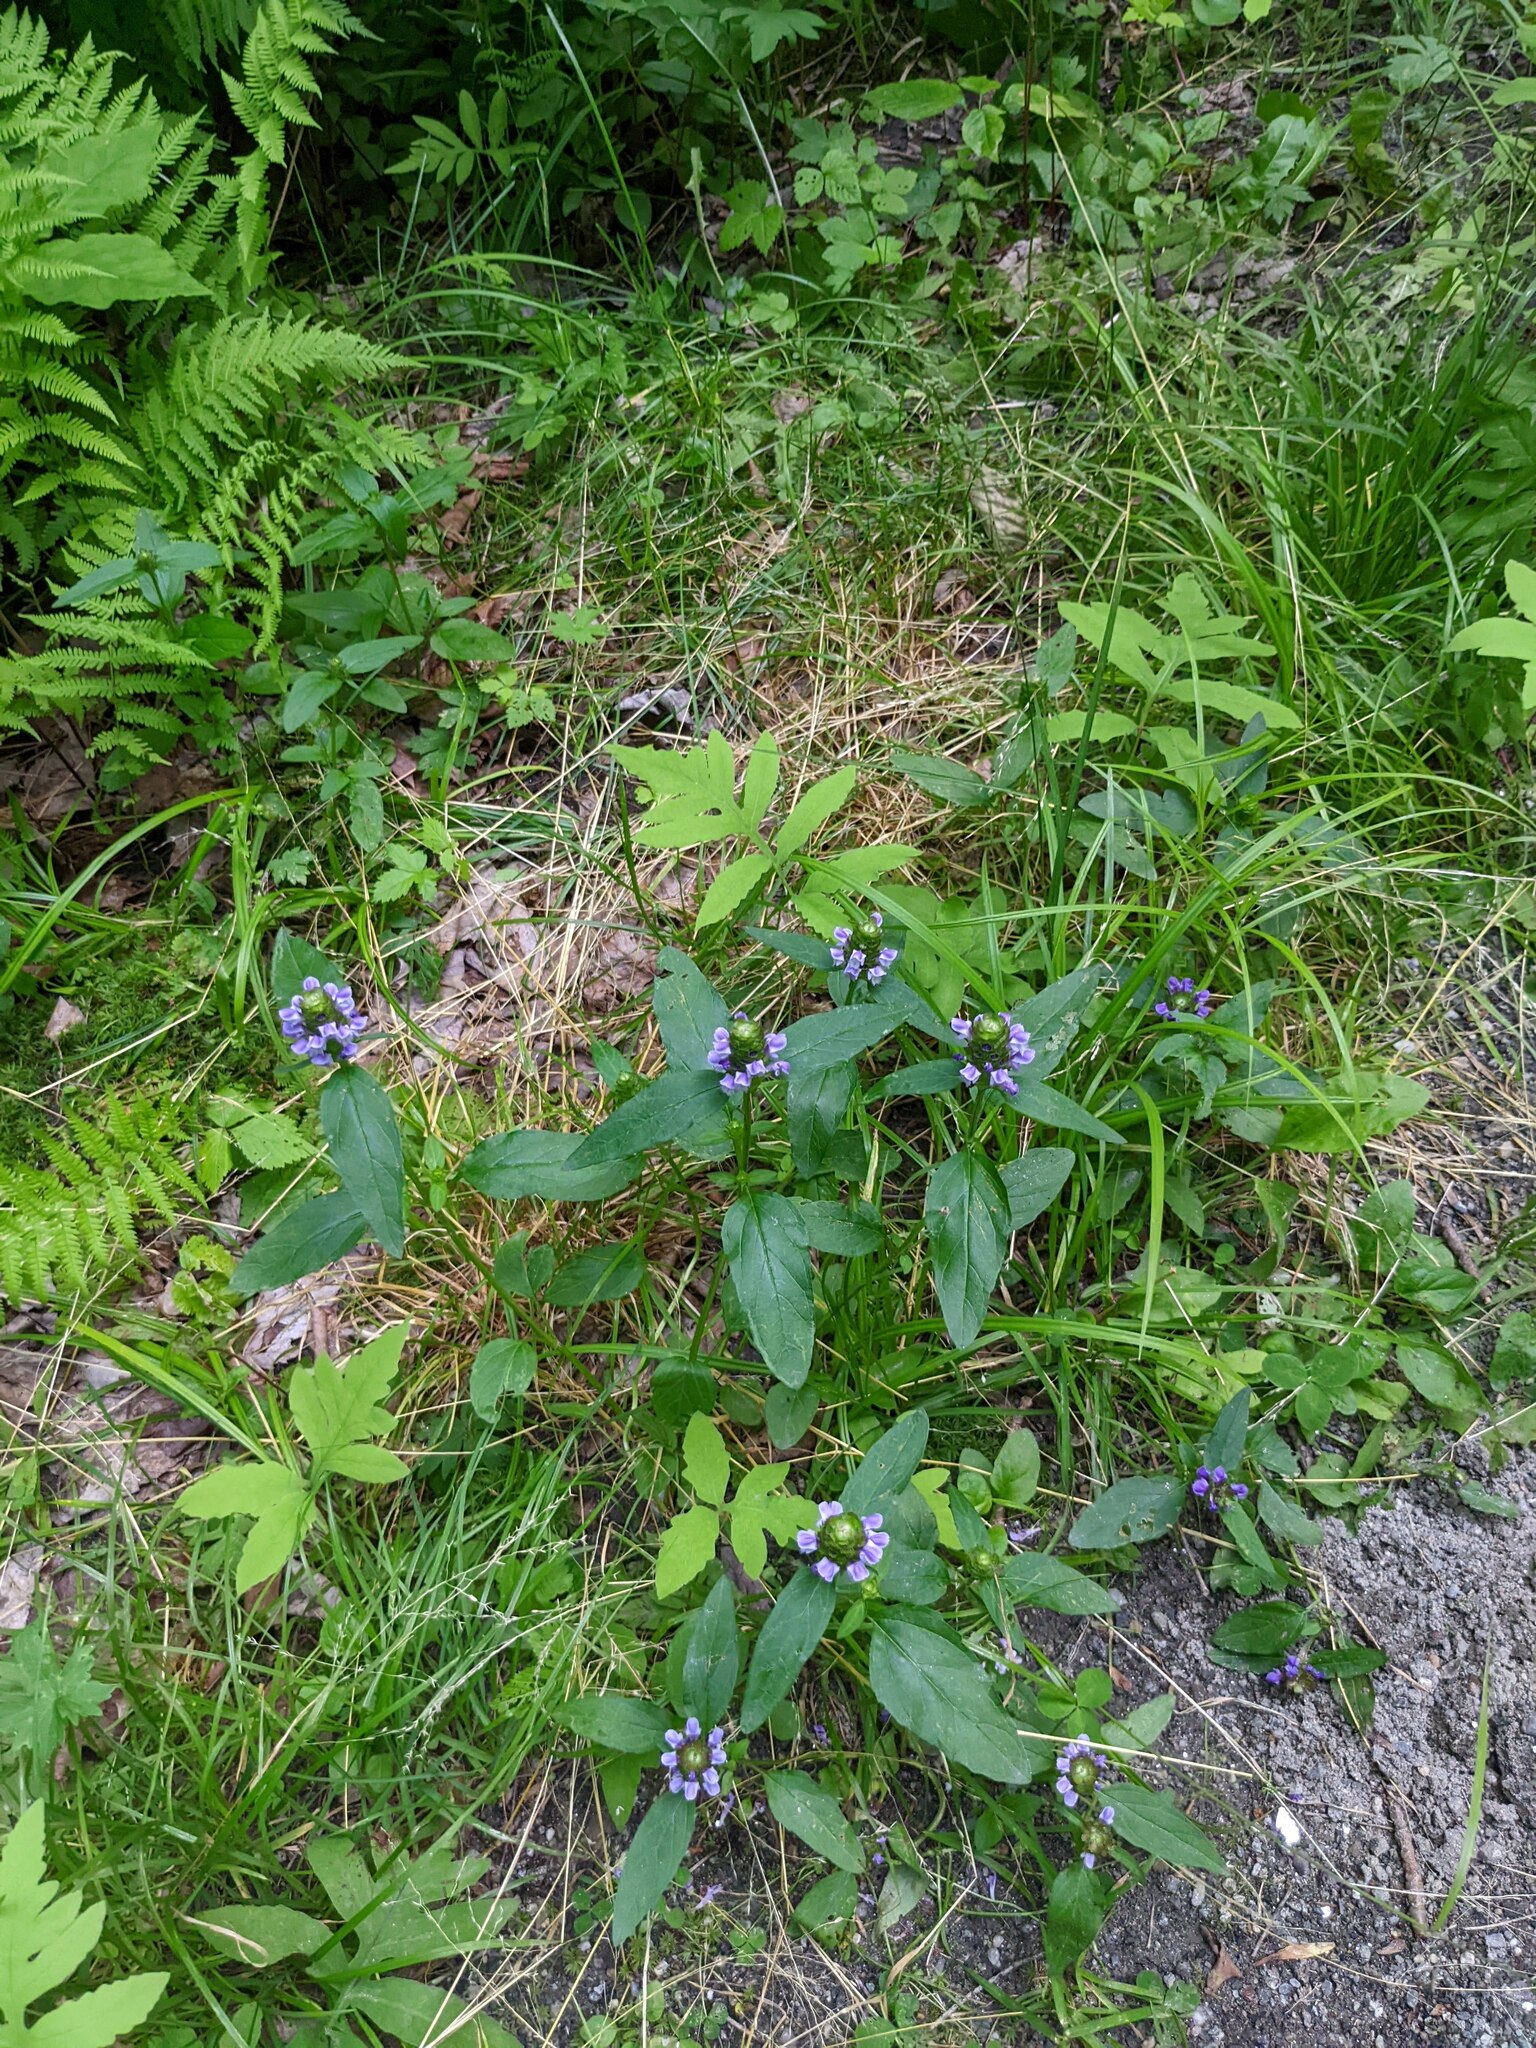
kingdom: Plantae
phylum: Tracheophyta
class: Magnoliopsida
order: Lamiales
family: Lamiaceae
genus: Prunella
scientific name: Prunella vulgaris
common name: Heal-all
